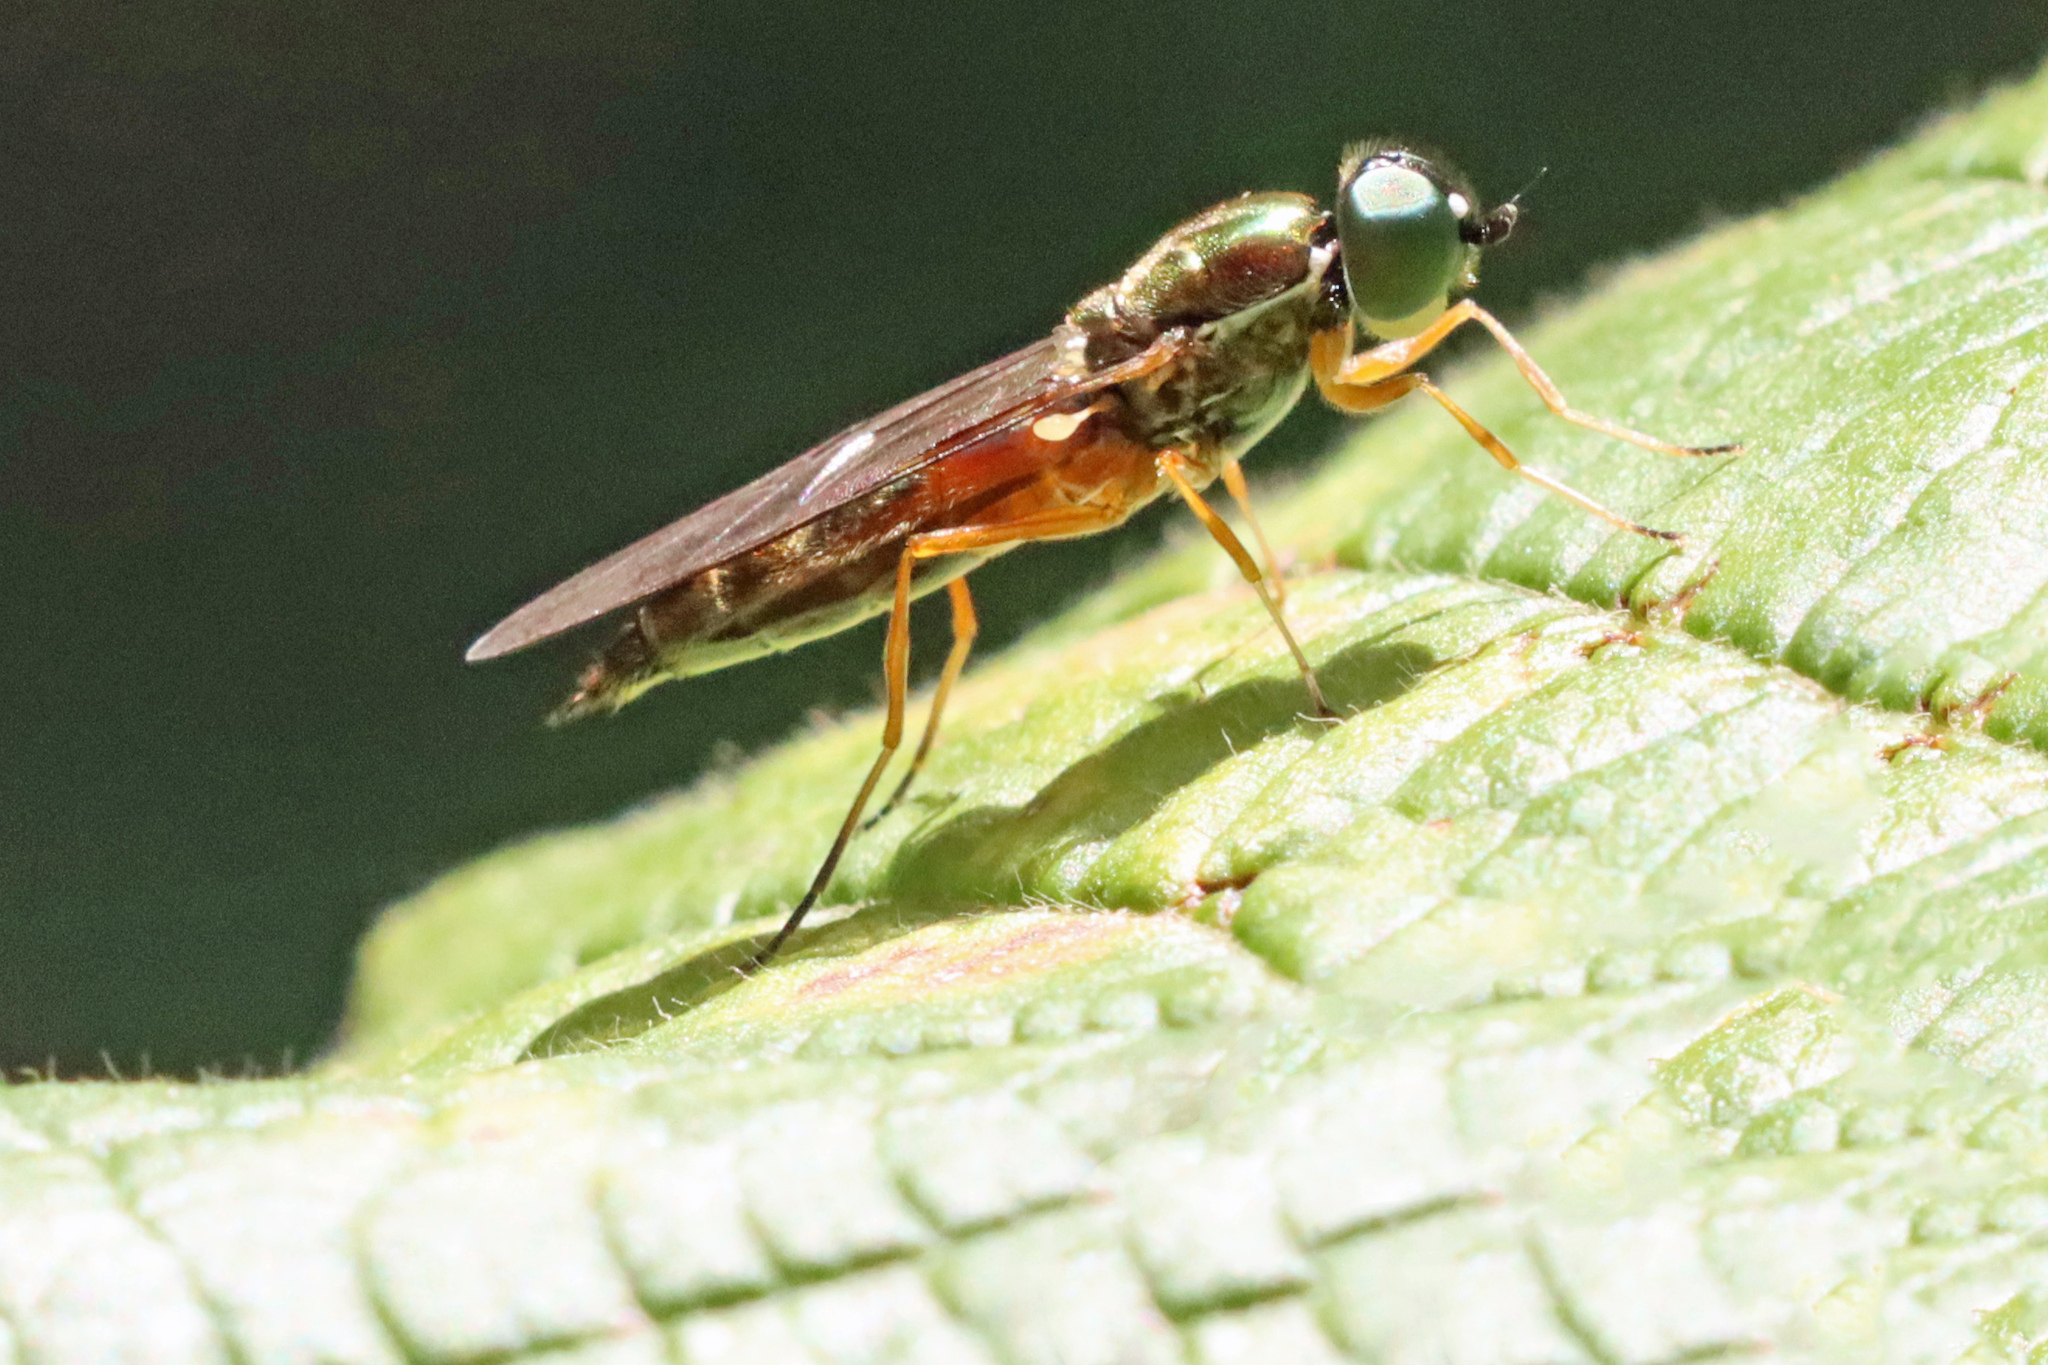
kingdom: Animalia
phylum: Arthropoda
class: Insecta
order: Diptera
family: Stratiomyidae
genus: Sargus
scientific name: Sargus bipunctatus
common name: Twin-spot centurion
